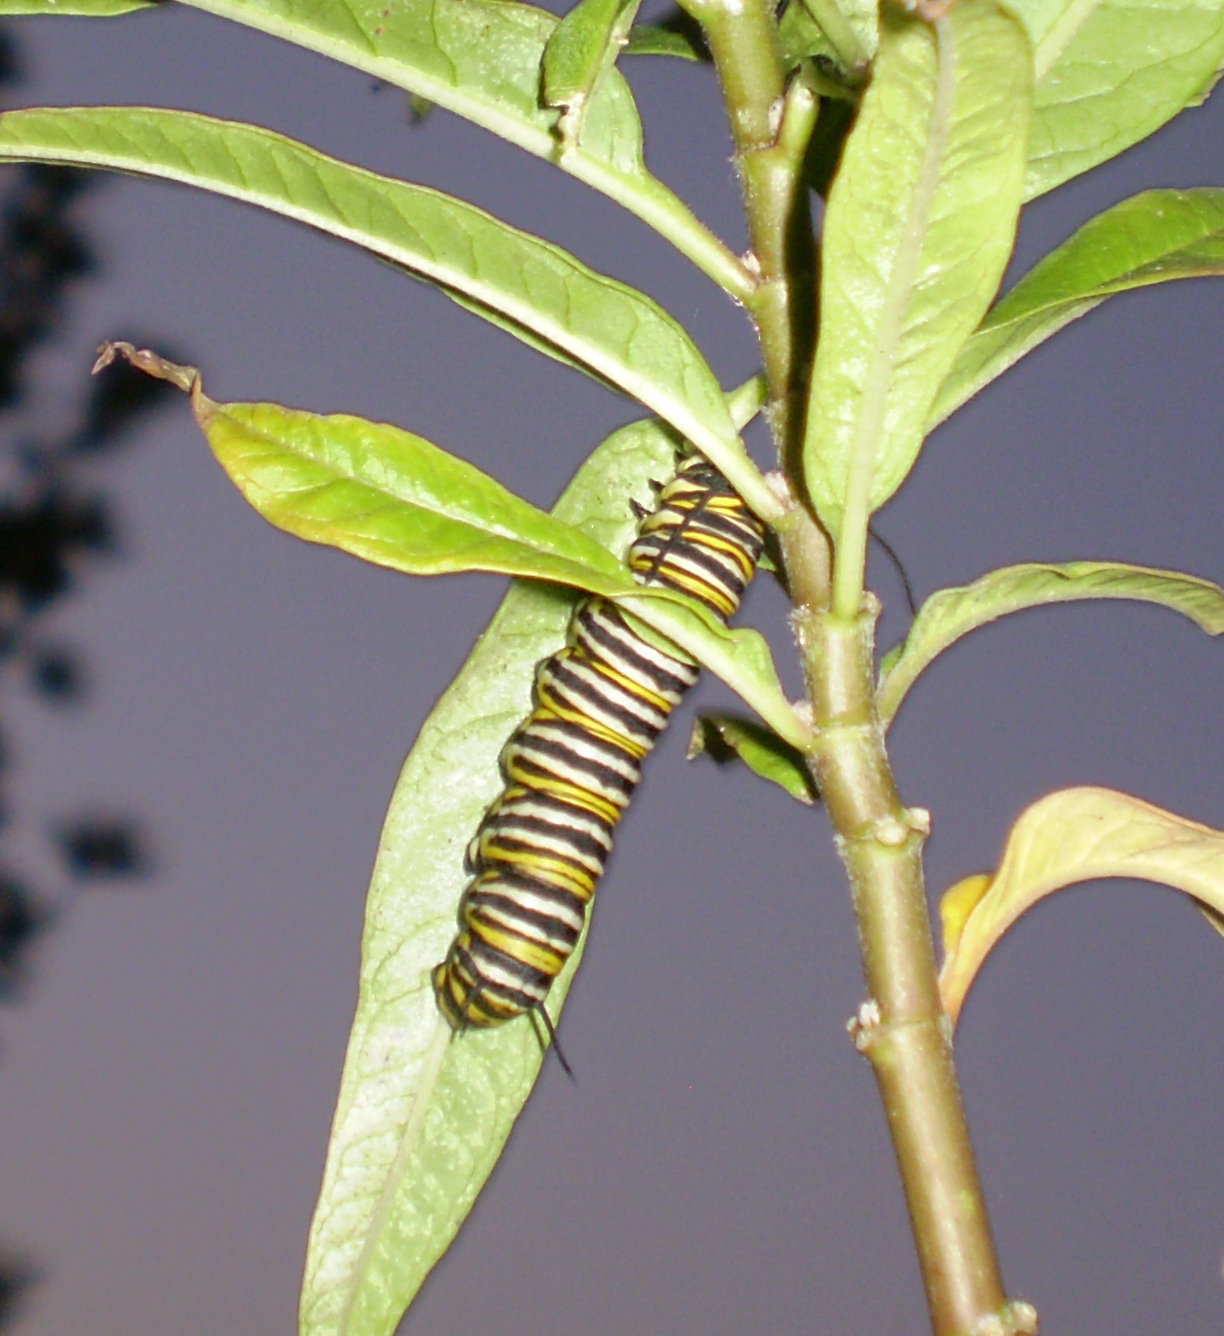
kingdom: Animalia
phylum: Arthropoda
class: Insecta
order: Lepidoptera
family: Nymphalidae
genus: Danaus
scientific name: Danaus plexippus
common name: Monarch
